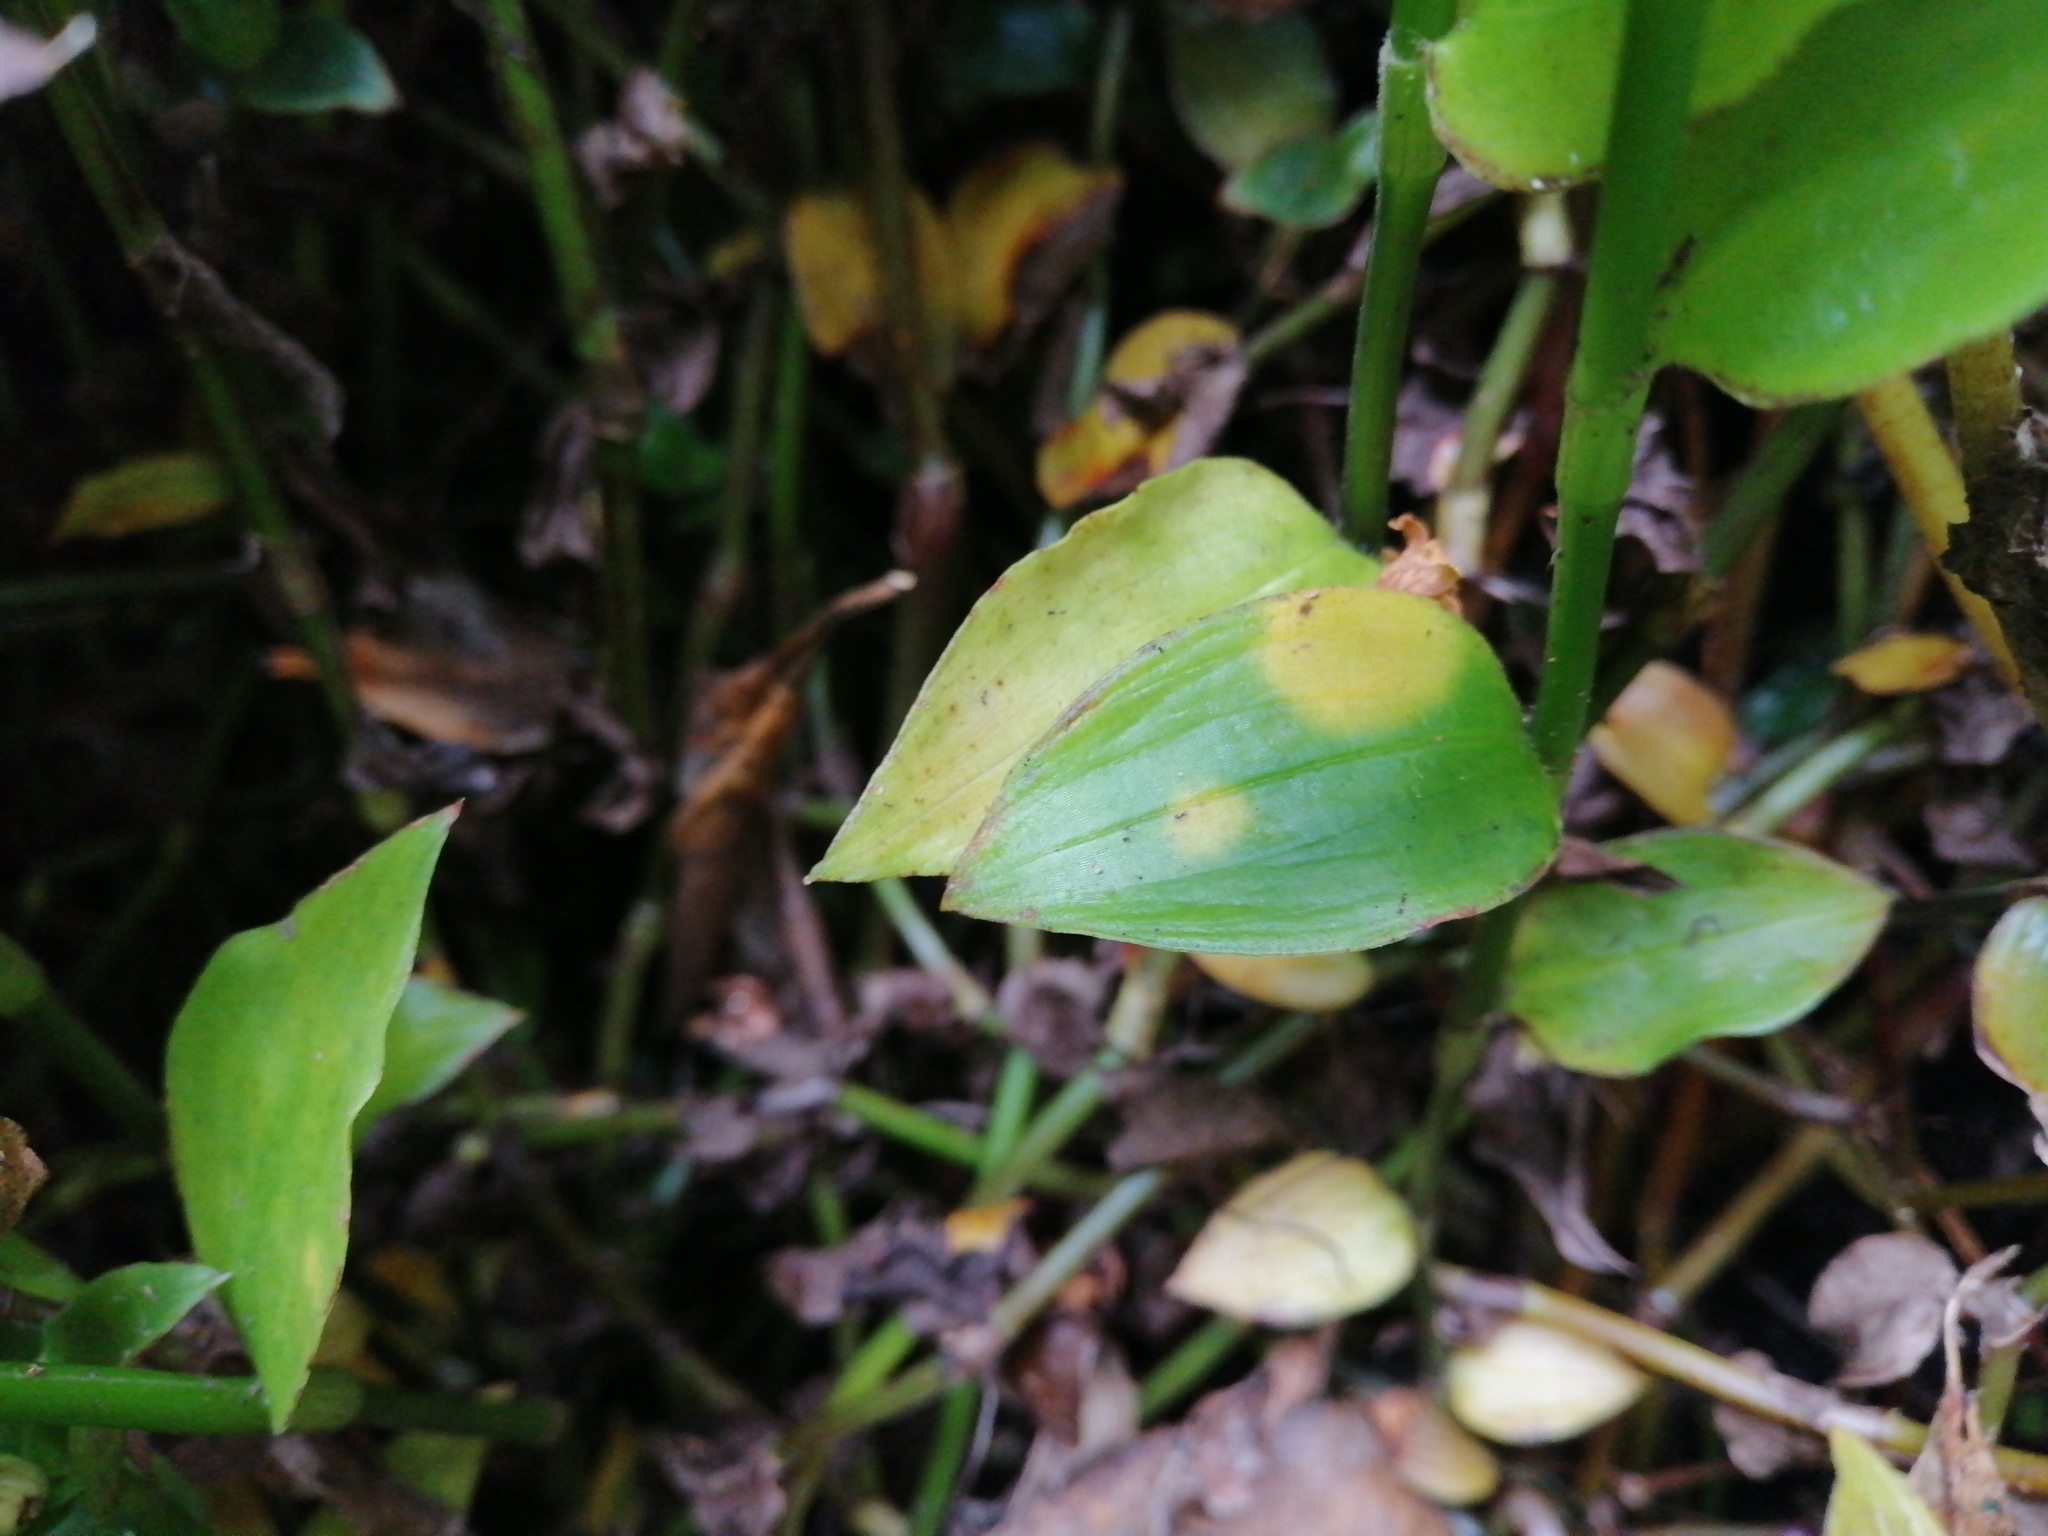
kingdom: Fungi
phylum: Basidiomycota
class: Exobasidiomycetes
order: Exobasidiales
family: Brachybasidiaceae
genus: Kordyana
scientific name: Kordyana brasiliensis
